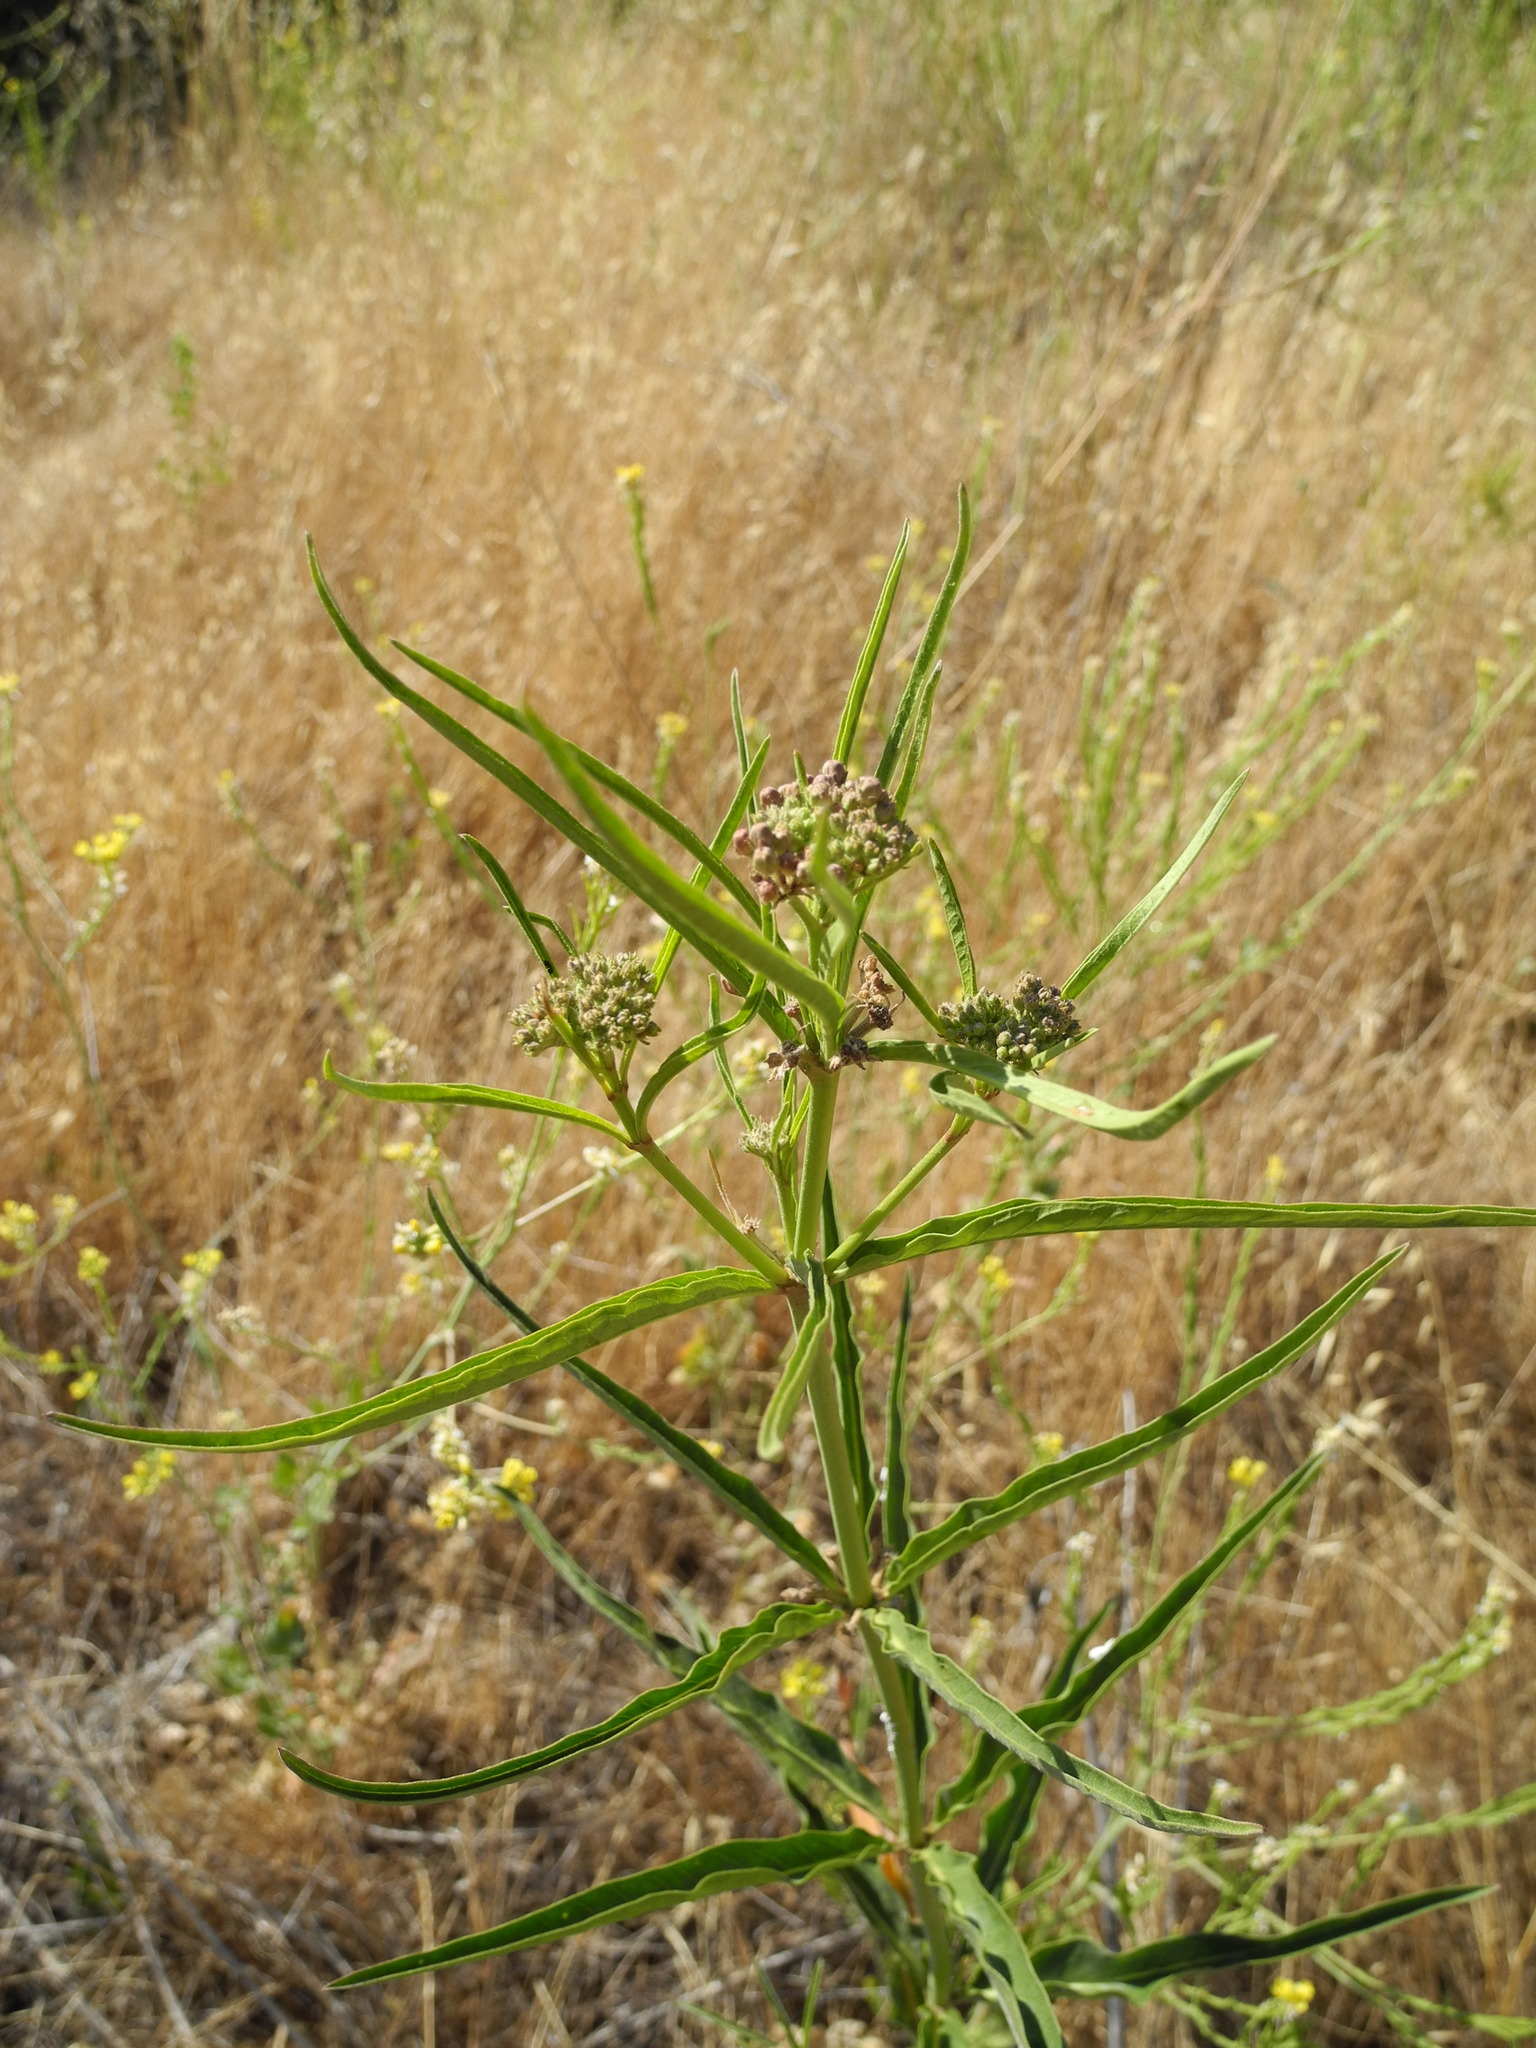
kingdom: Plantae
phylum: Tracheophyta
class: Magnoliopsida
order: Gentianales
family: Apocynaceae
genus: Asclepias
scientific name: Asclepias fascicularis
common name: Mexican milkweed
